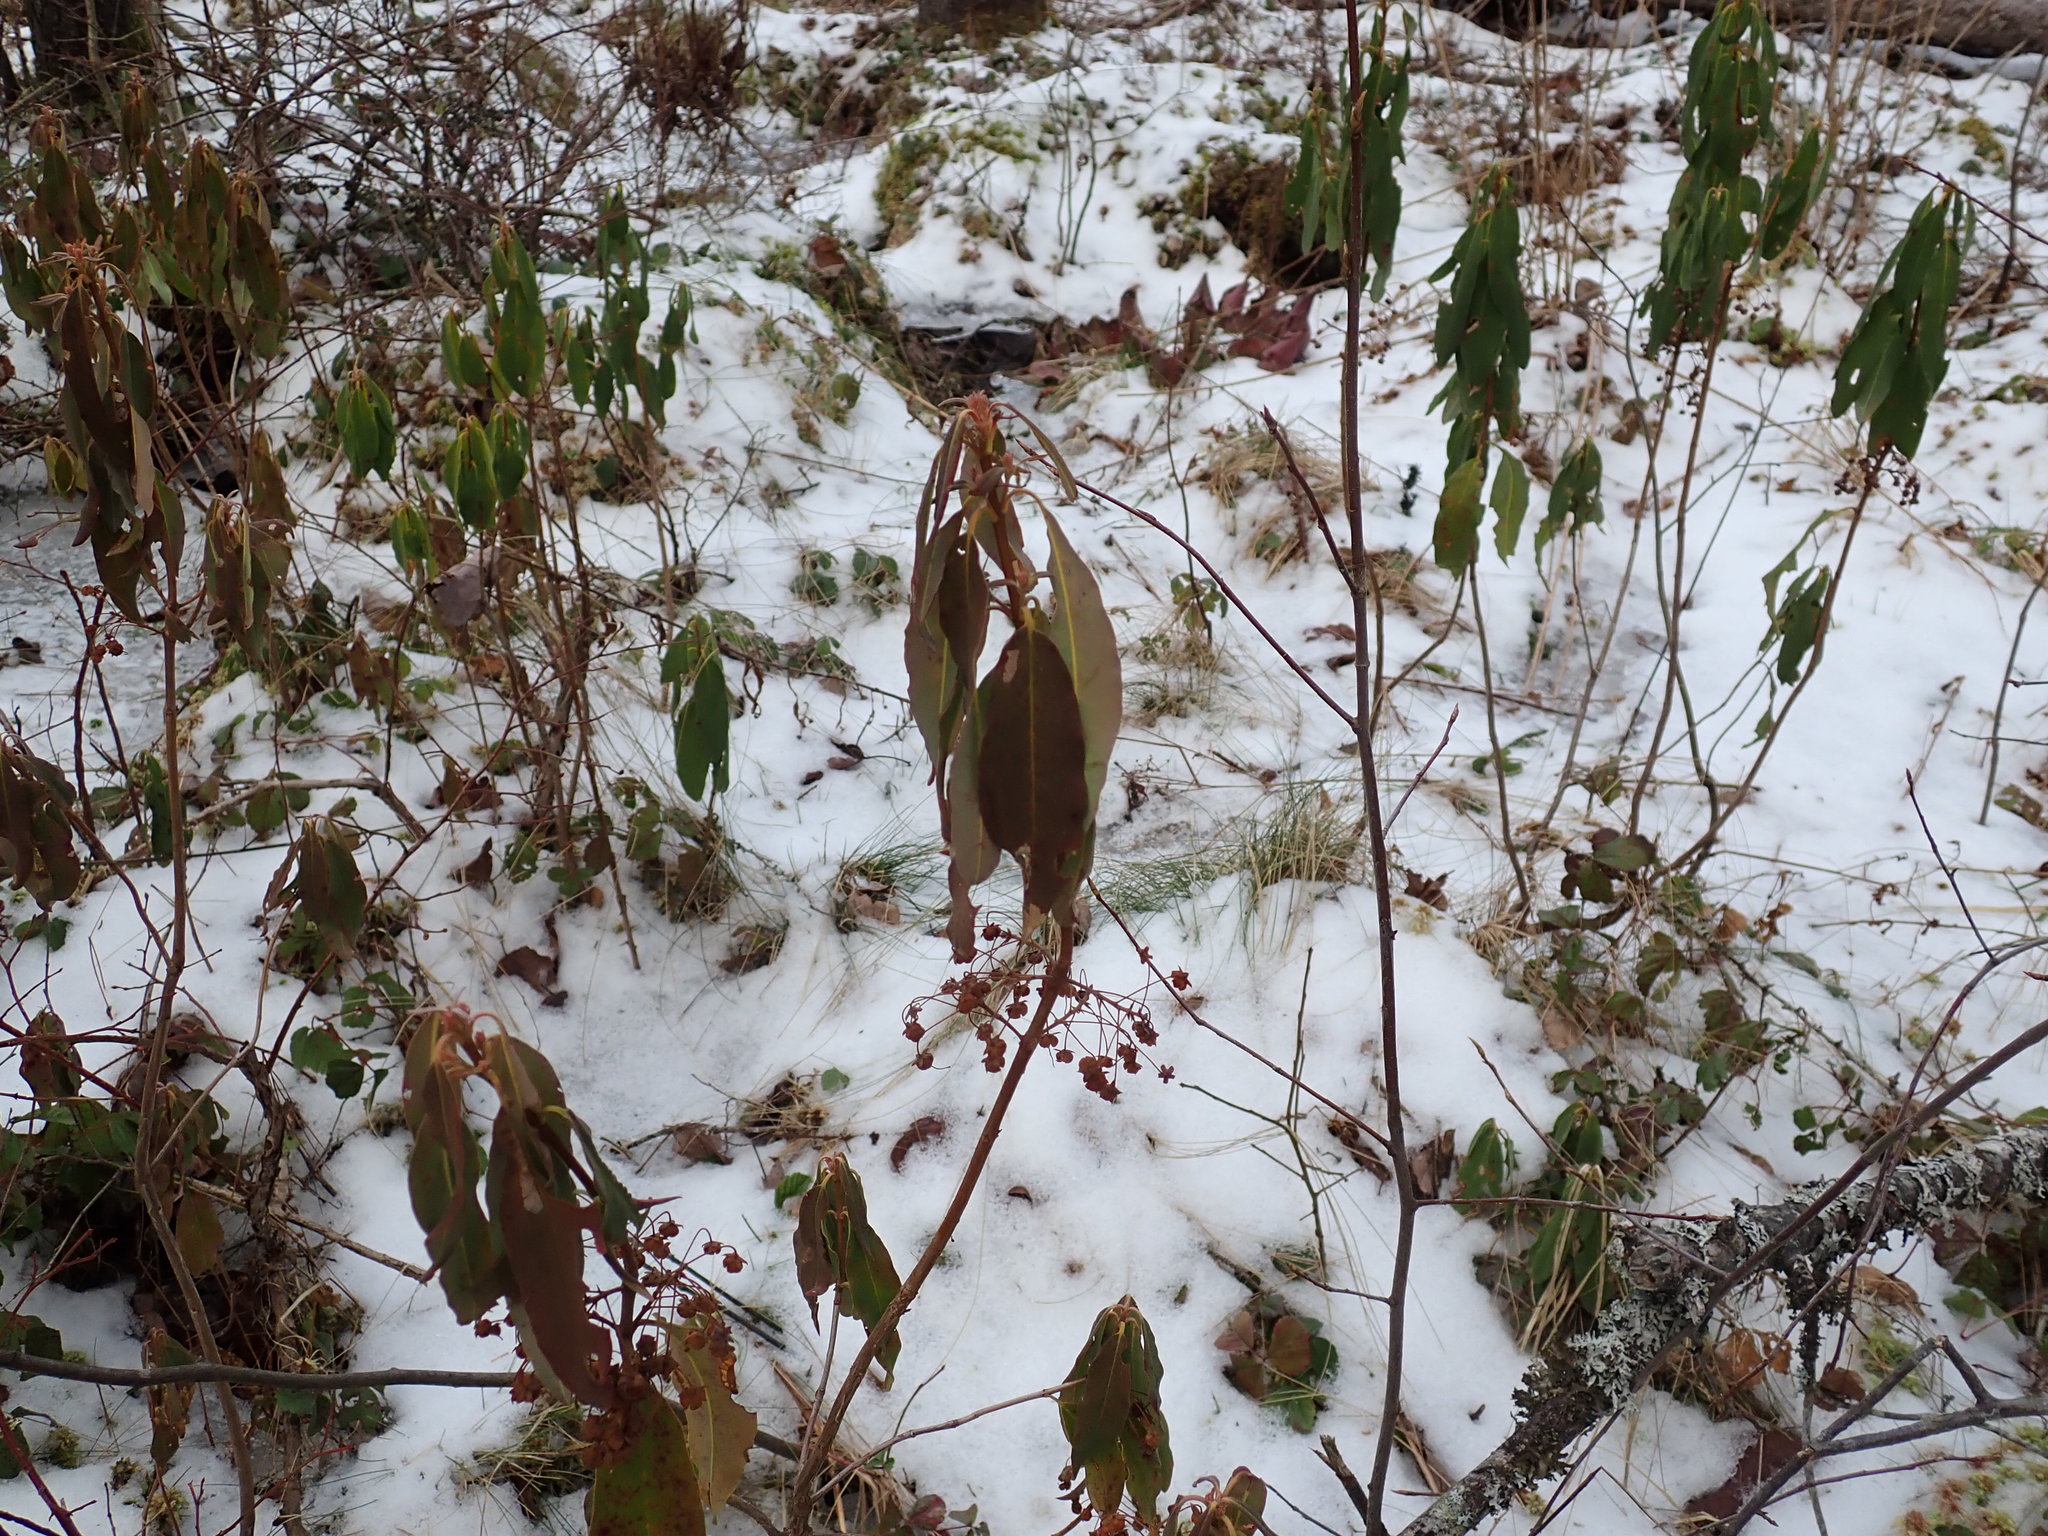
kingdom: Plantae
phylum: Tracheophyta
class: Magnoliopsida
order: Ericales
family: Ericaceae
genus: Kalmia
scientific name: Kalmia angustifolia
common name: Sheep-laurel
